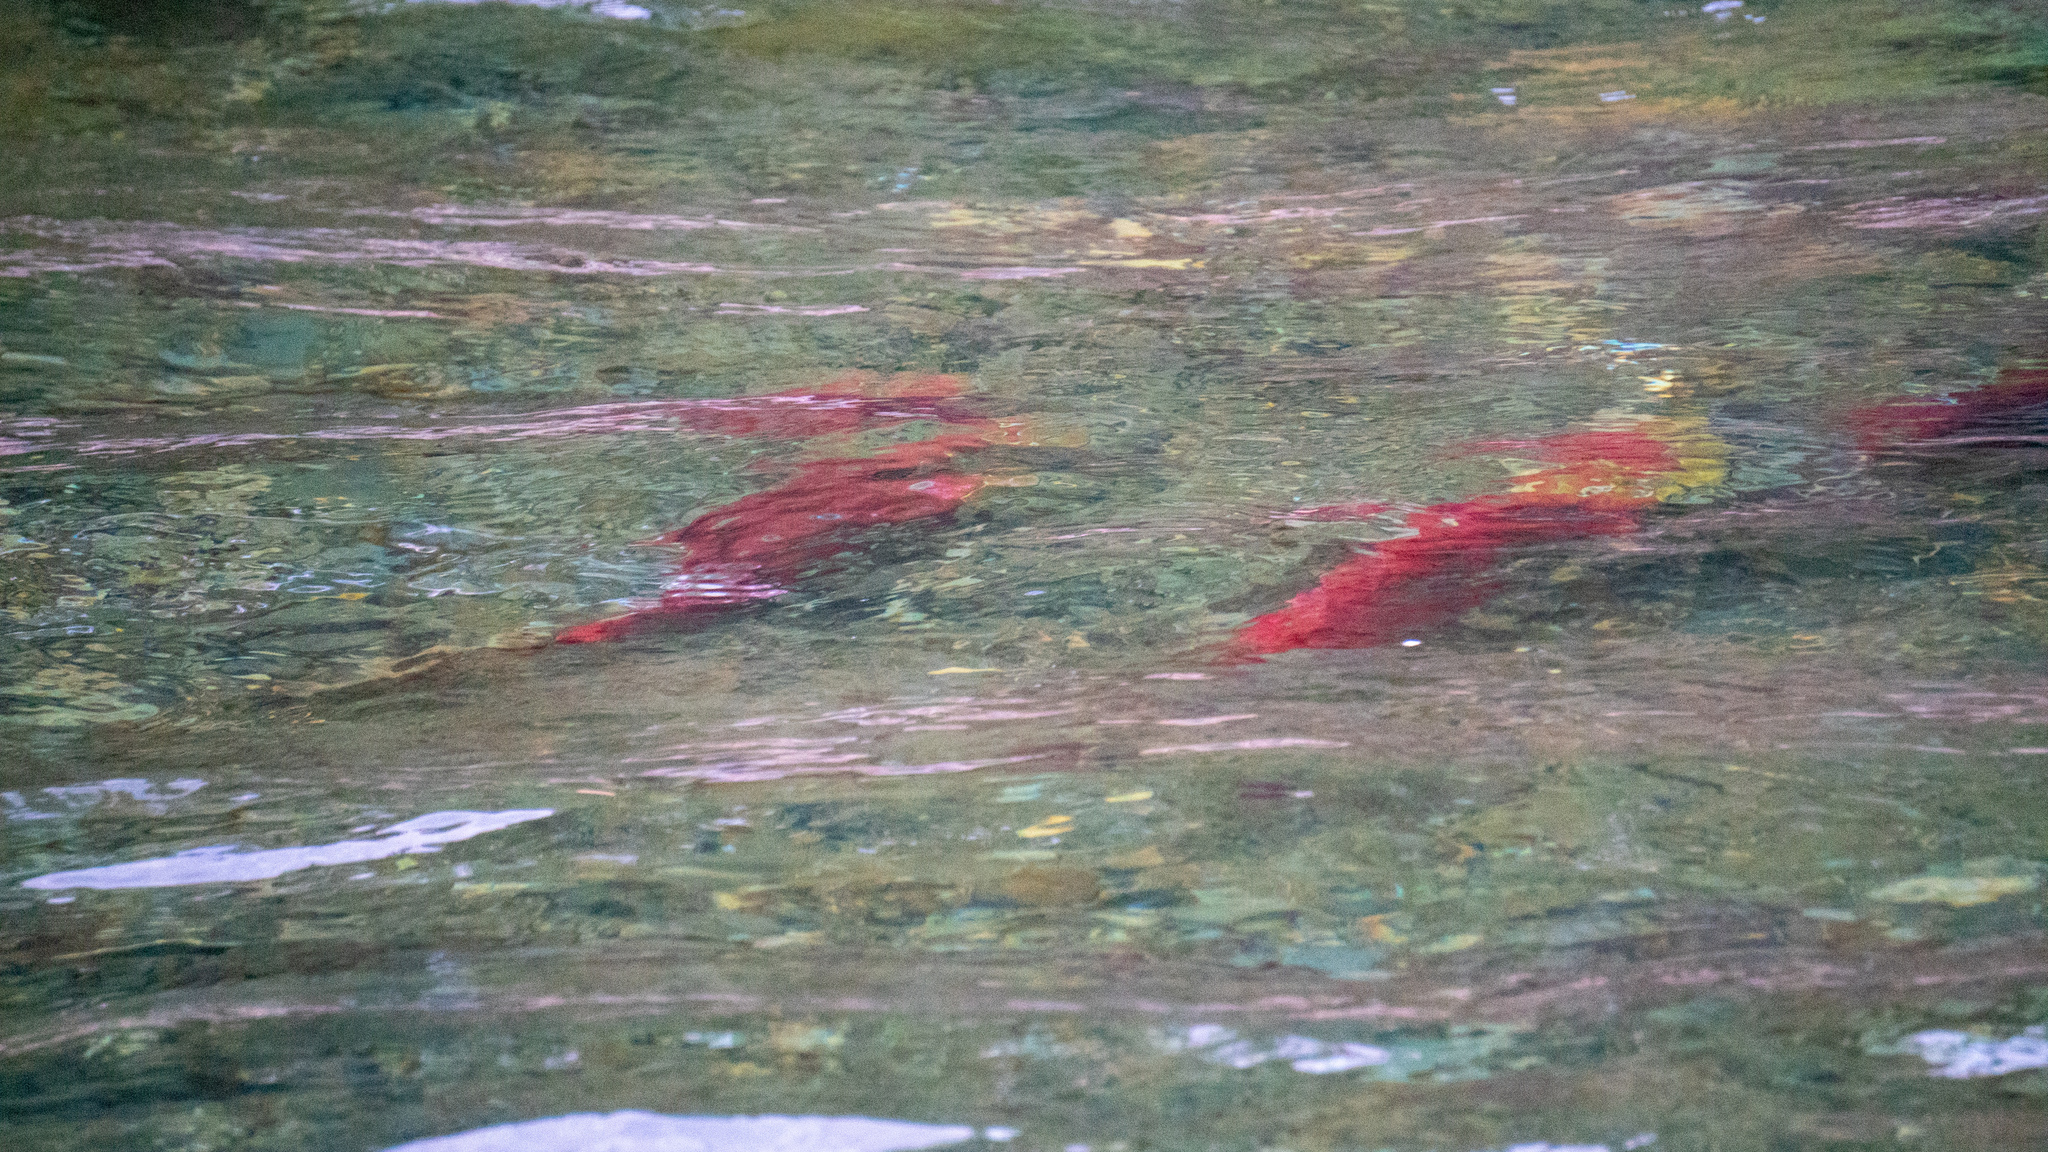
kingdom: Animalia
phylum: Chordata
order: Salmoniformes
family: Salmonidae
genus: Oncorhynchus
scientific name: Oncorhynchus nerka
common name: Sockeye salmon
